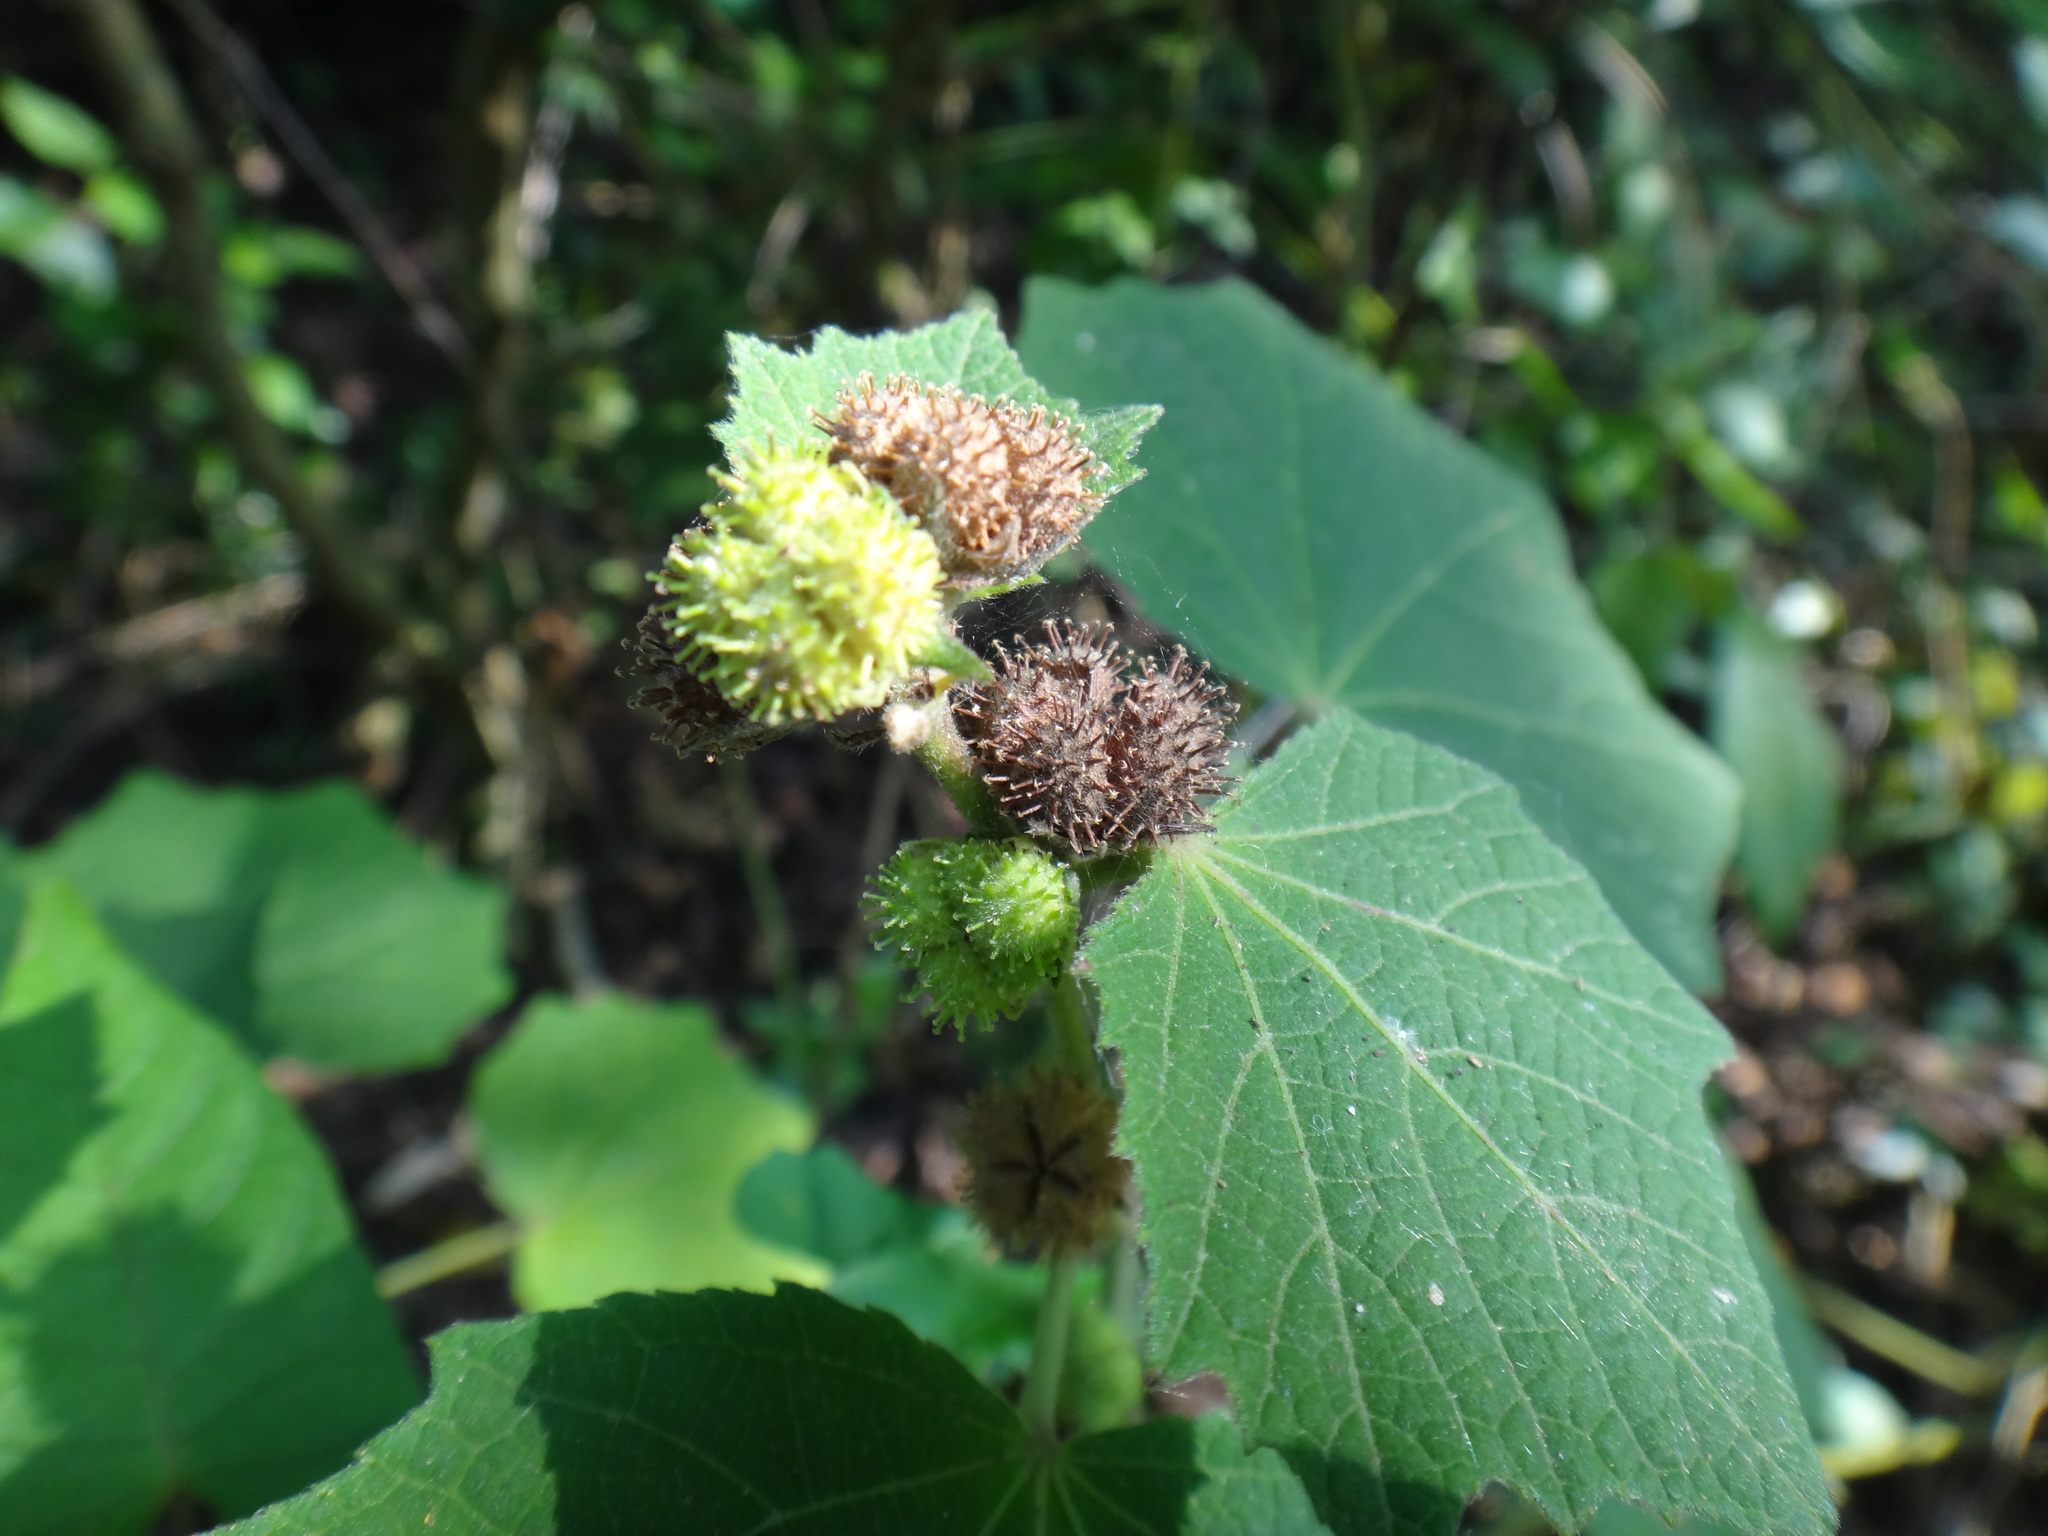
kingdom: Plantae
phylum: Tracheophyta
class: Magnoliopsida
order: Malvales
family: Malvaceae
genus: Urena
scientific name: Urena lobata
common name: Caesarweed
